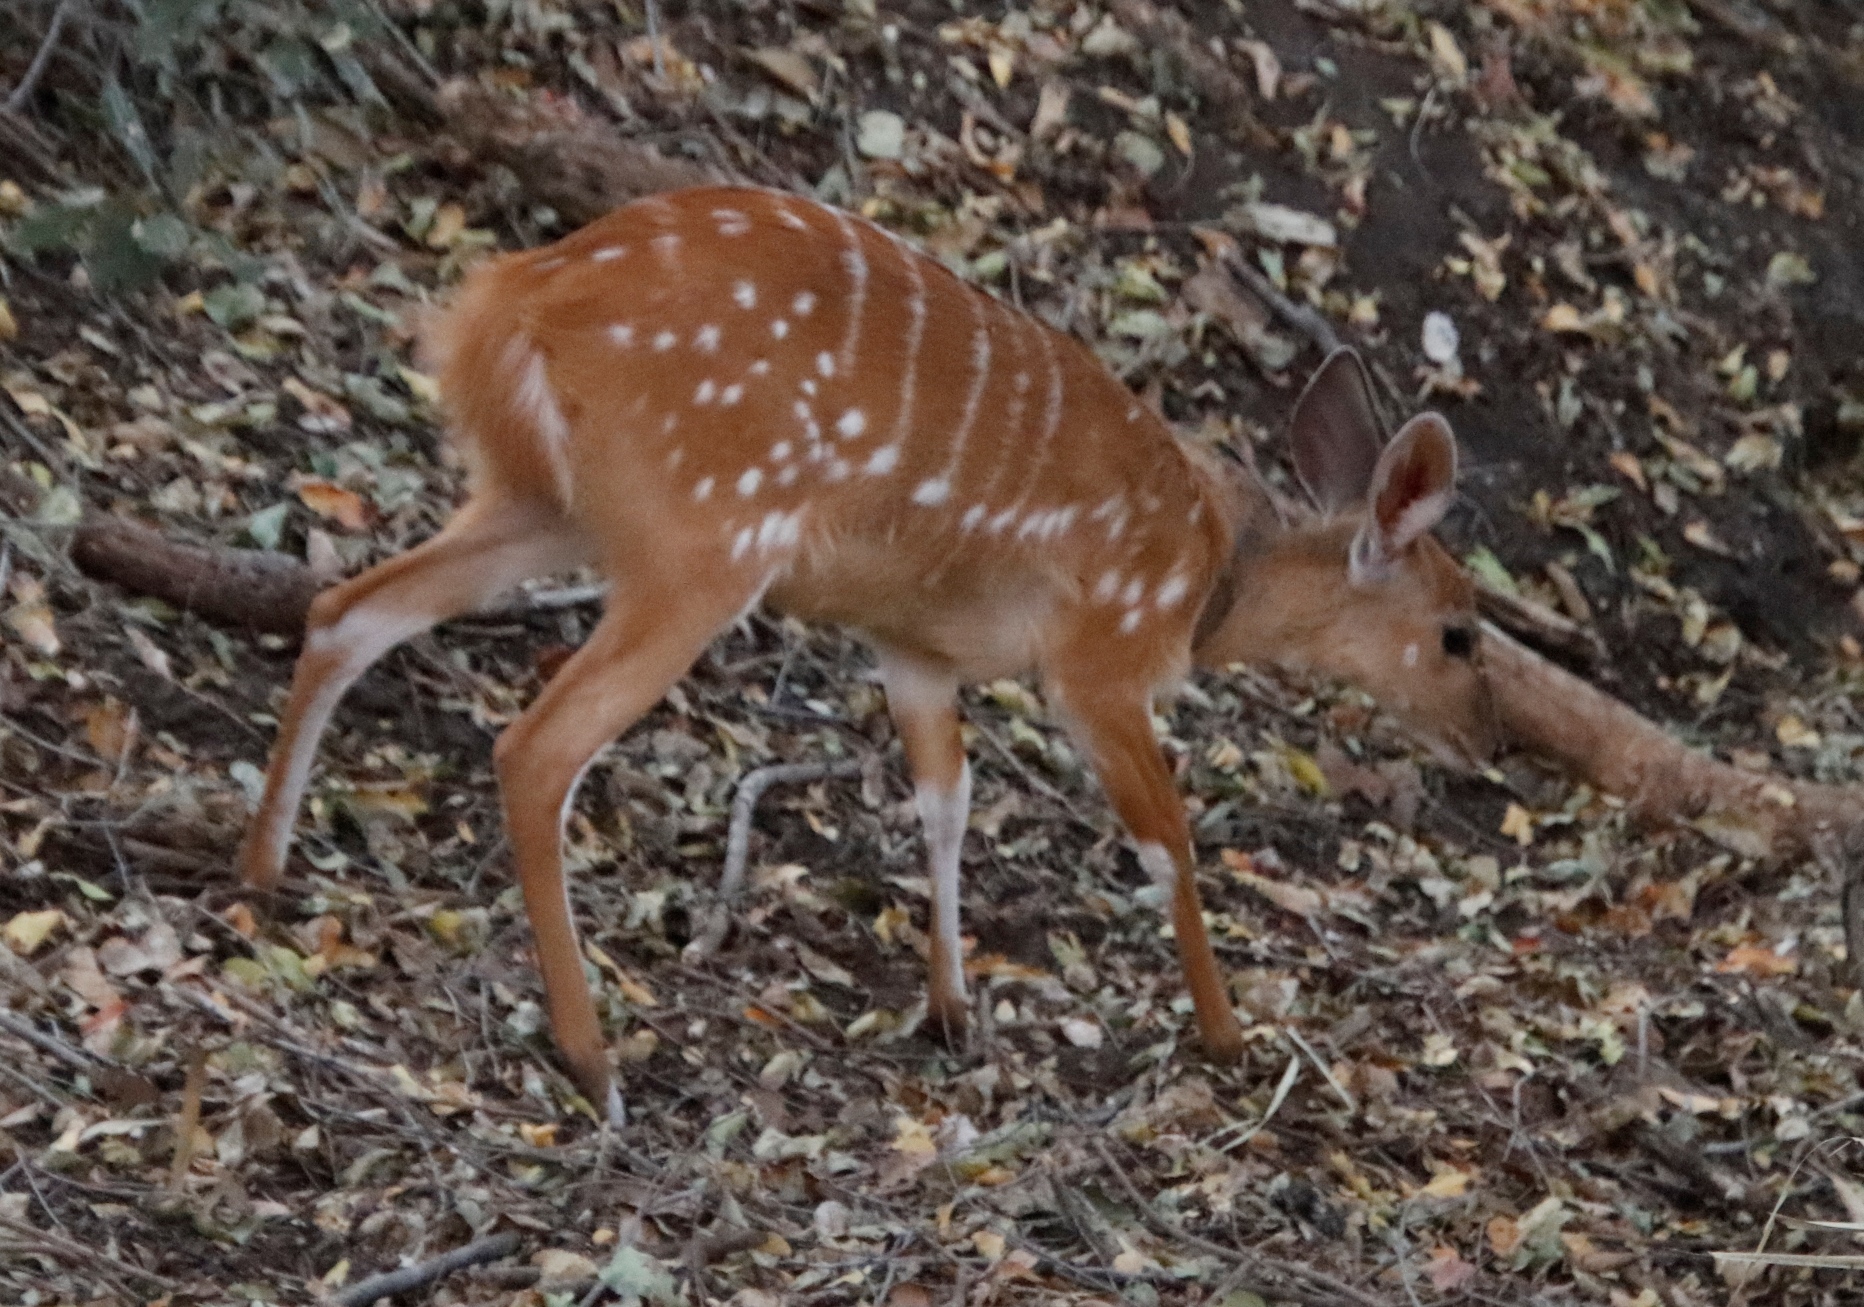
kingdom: Animalia
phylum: Chordata
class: Mammalia
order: Artiodactyla
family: Bovidae
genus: Tragelaphus
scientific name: Tragelaphus scriptus
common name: Bushbuck
